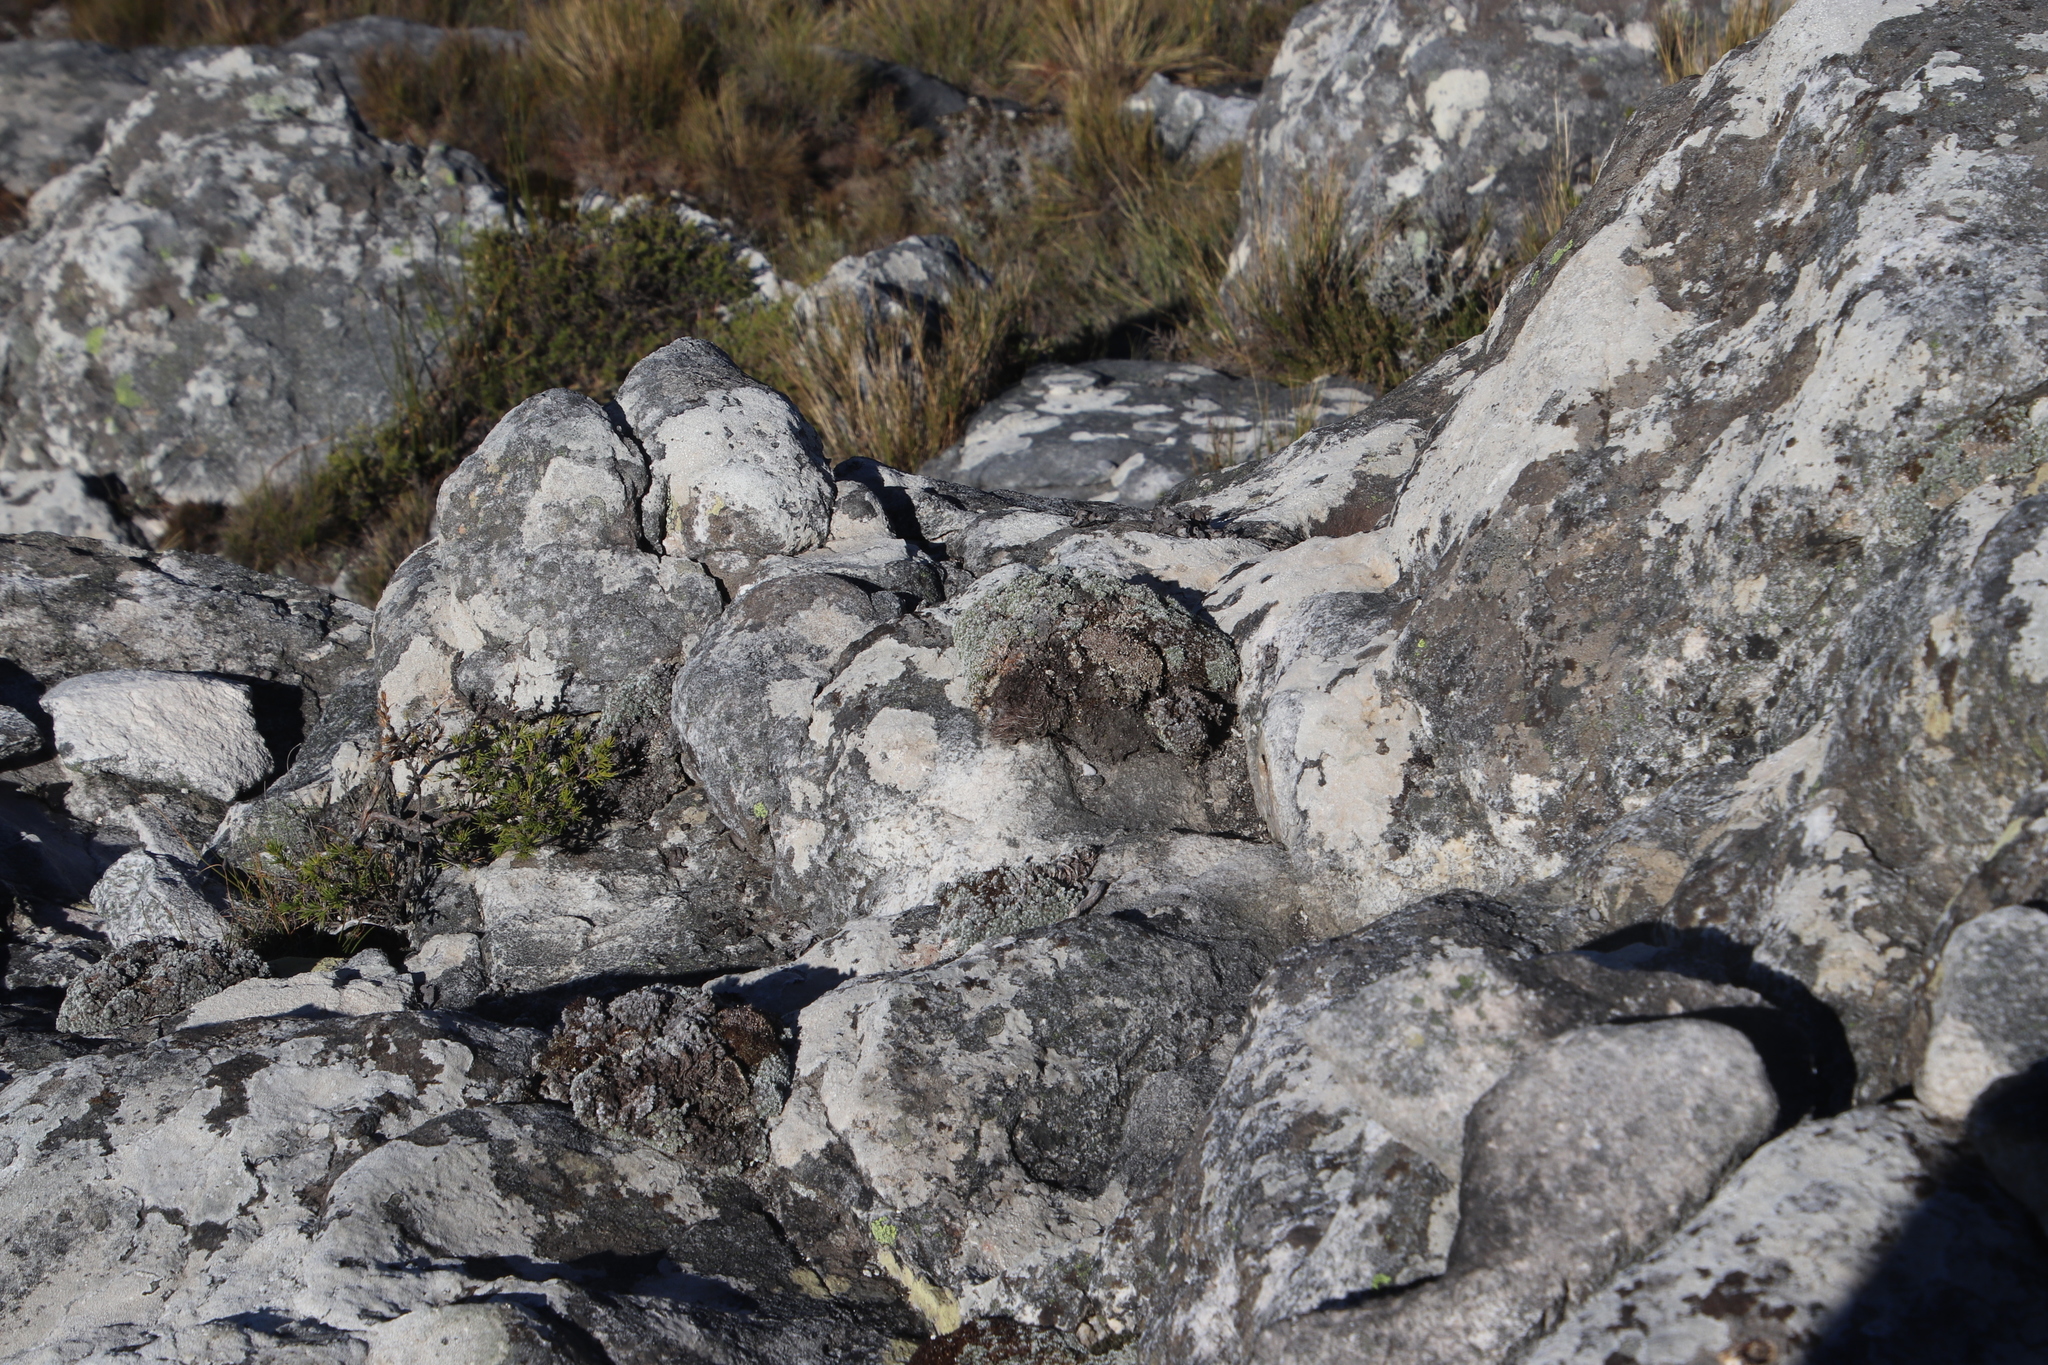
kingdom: Plantae
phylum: Tracheophyta
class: Magnoliopsida
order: Asterales
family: Asteraceae
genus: Muscosomorphe
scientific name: Muscosomorphe aretioides
